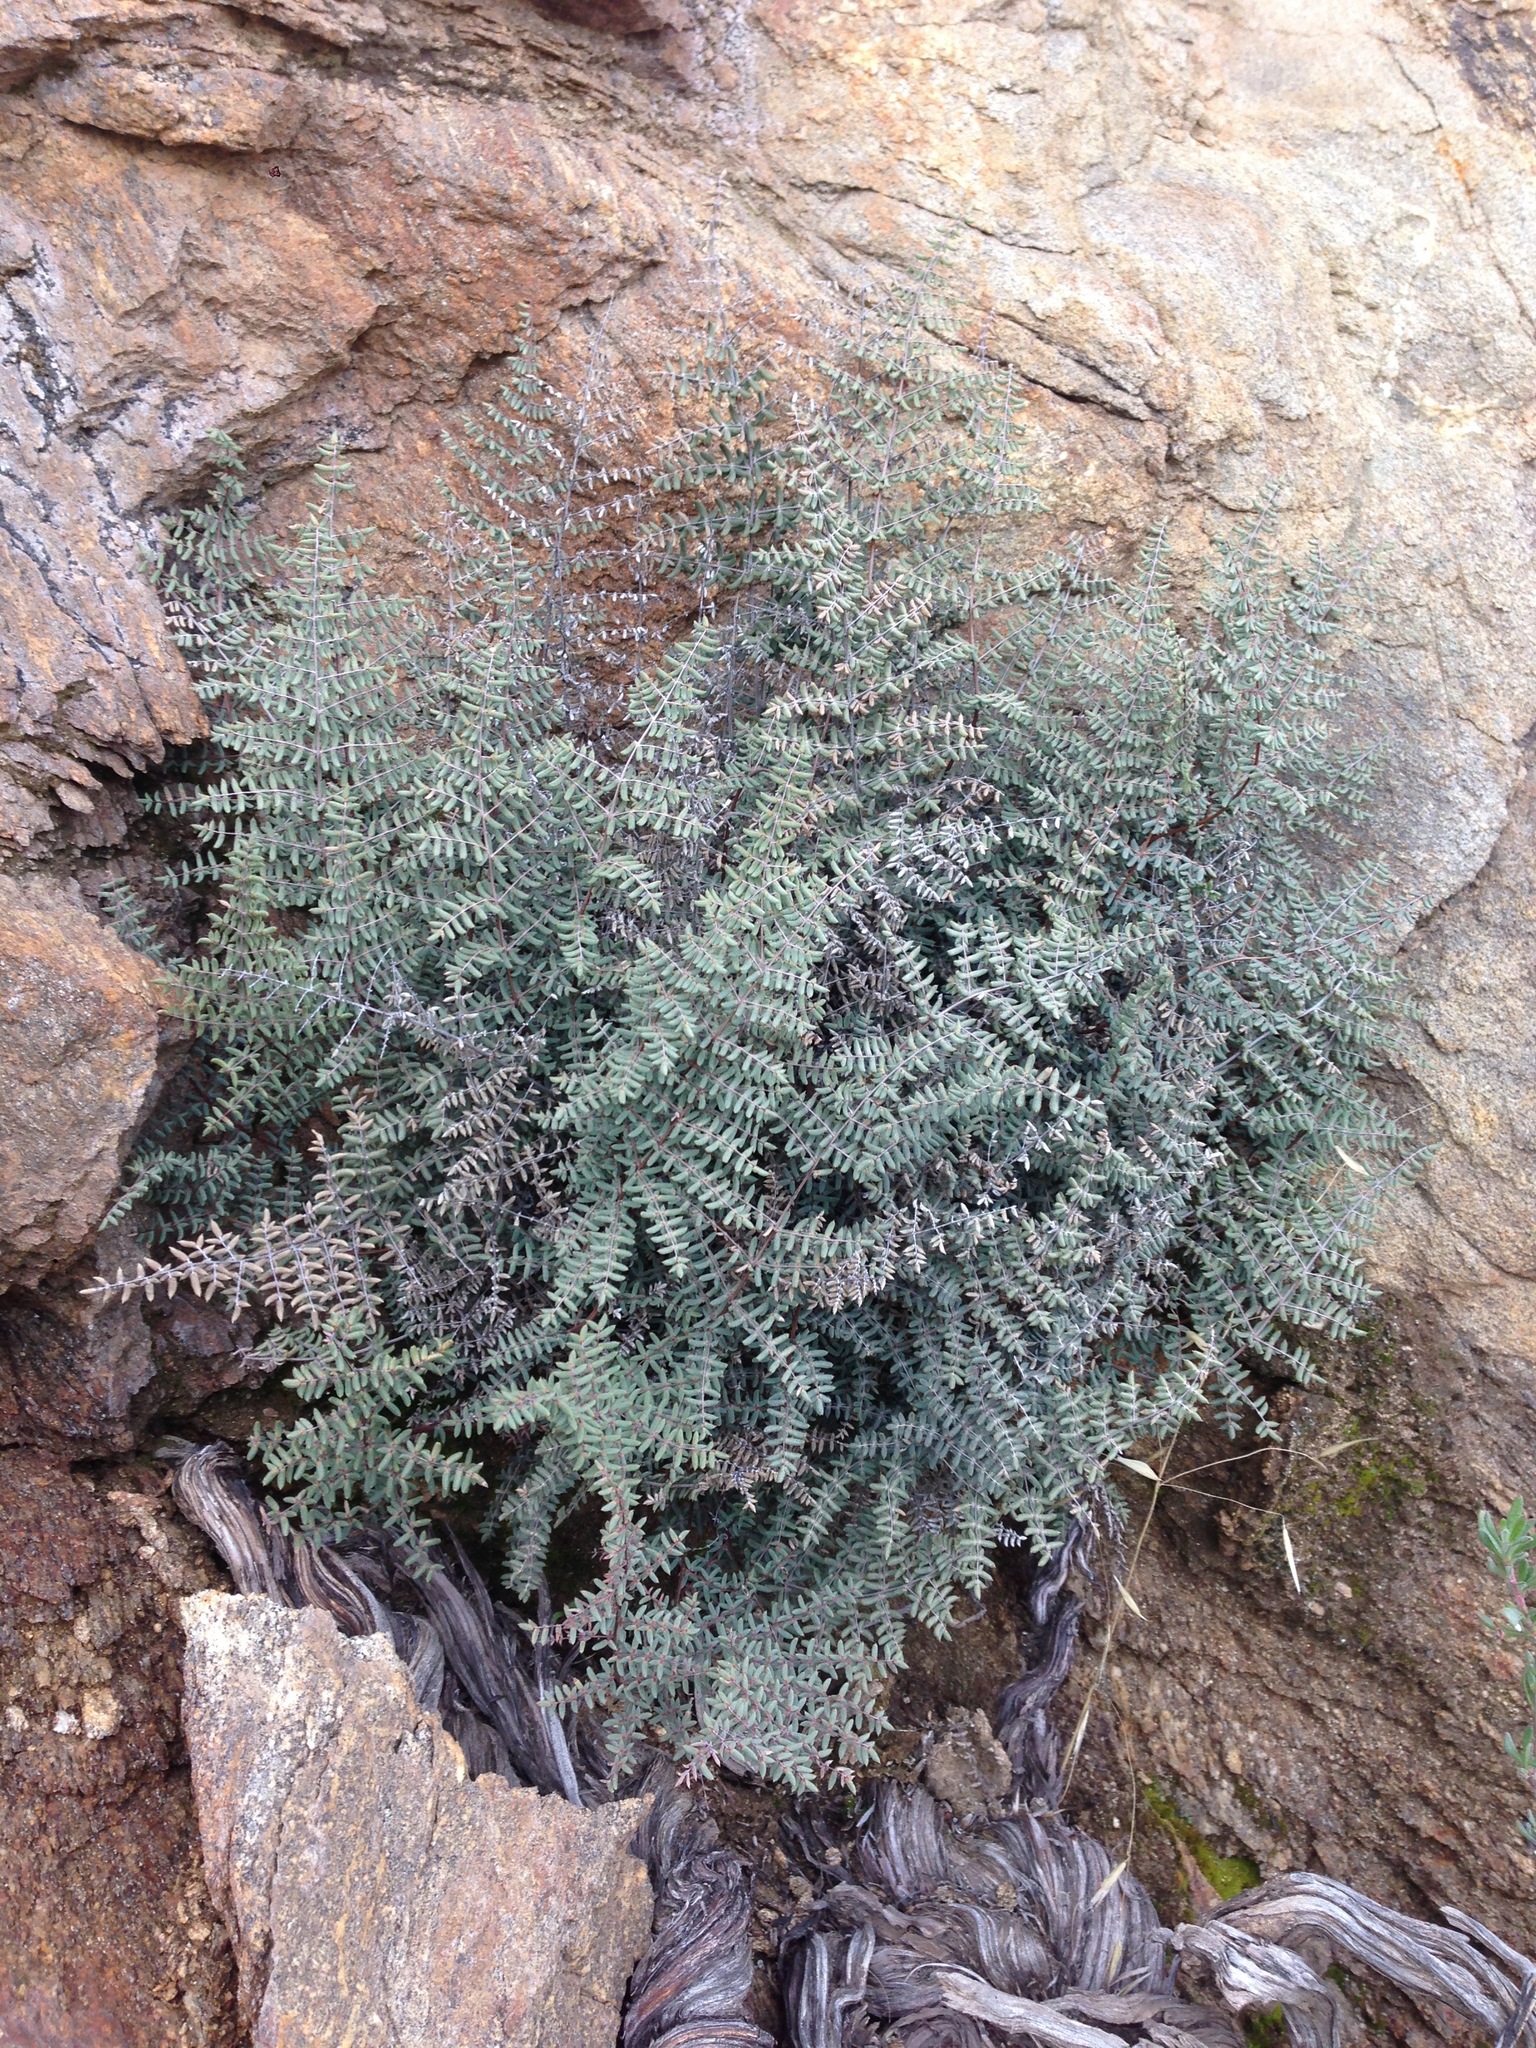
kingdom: Plantae
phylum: Tracheophyta
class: Polypodiopsida
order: Polypodiales
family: Pteridaceae
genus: Pellaea
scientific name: Pellaea mucronata
